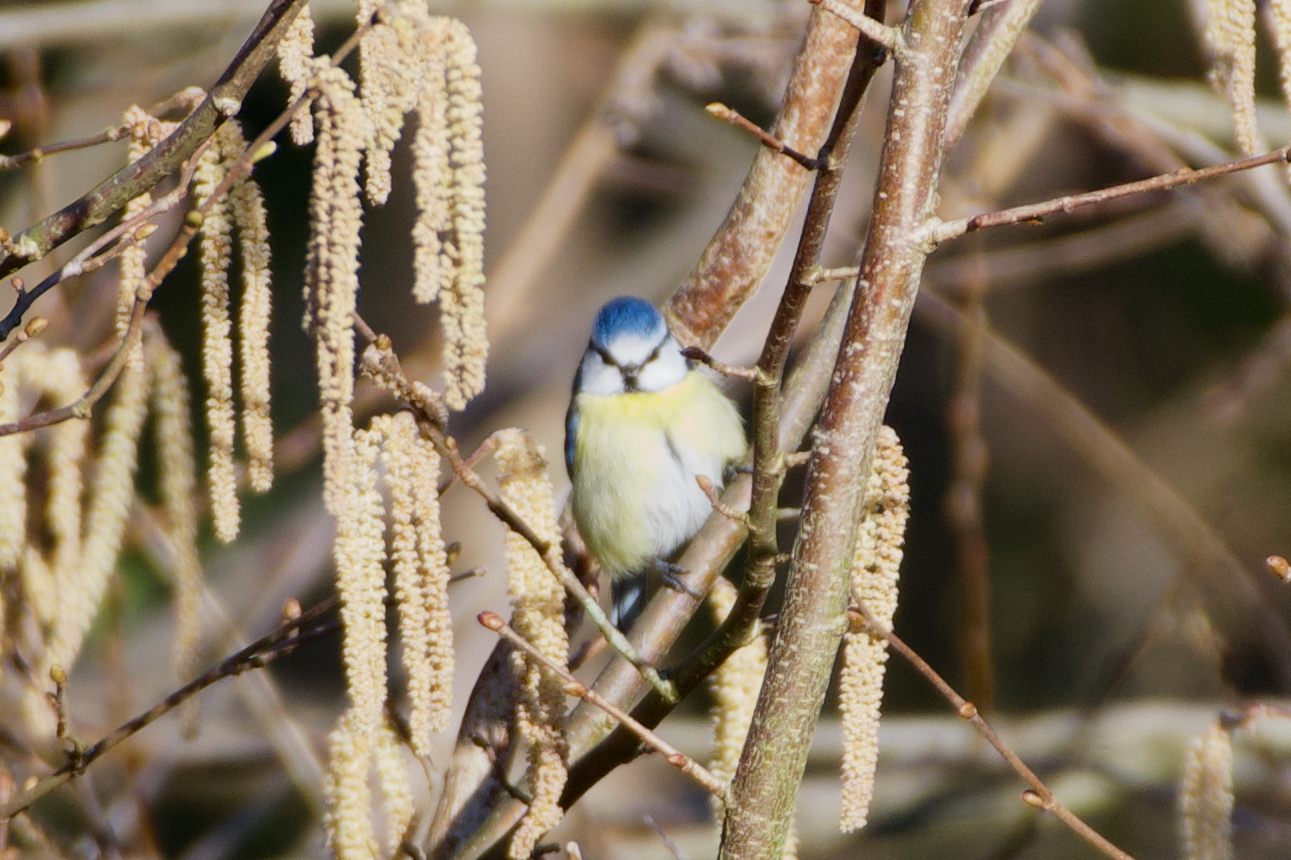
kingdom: Animalia
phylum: Chordata
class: Aves
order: Passeriformes
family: Paridae
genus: Cyanistes
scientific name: Cyanistes caeruleus
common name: Eurasian blue tit
